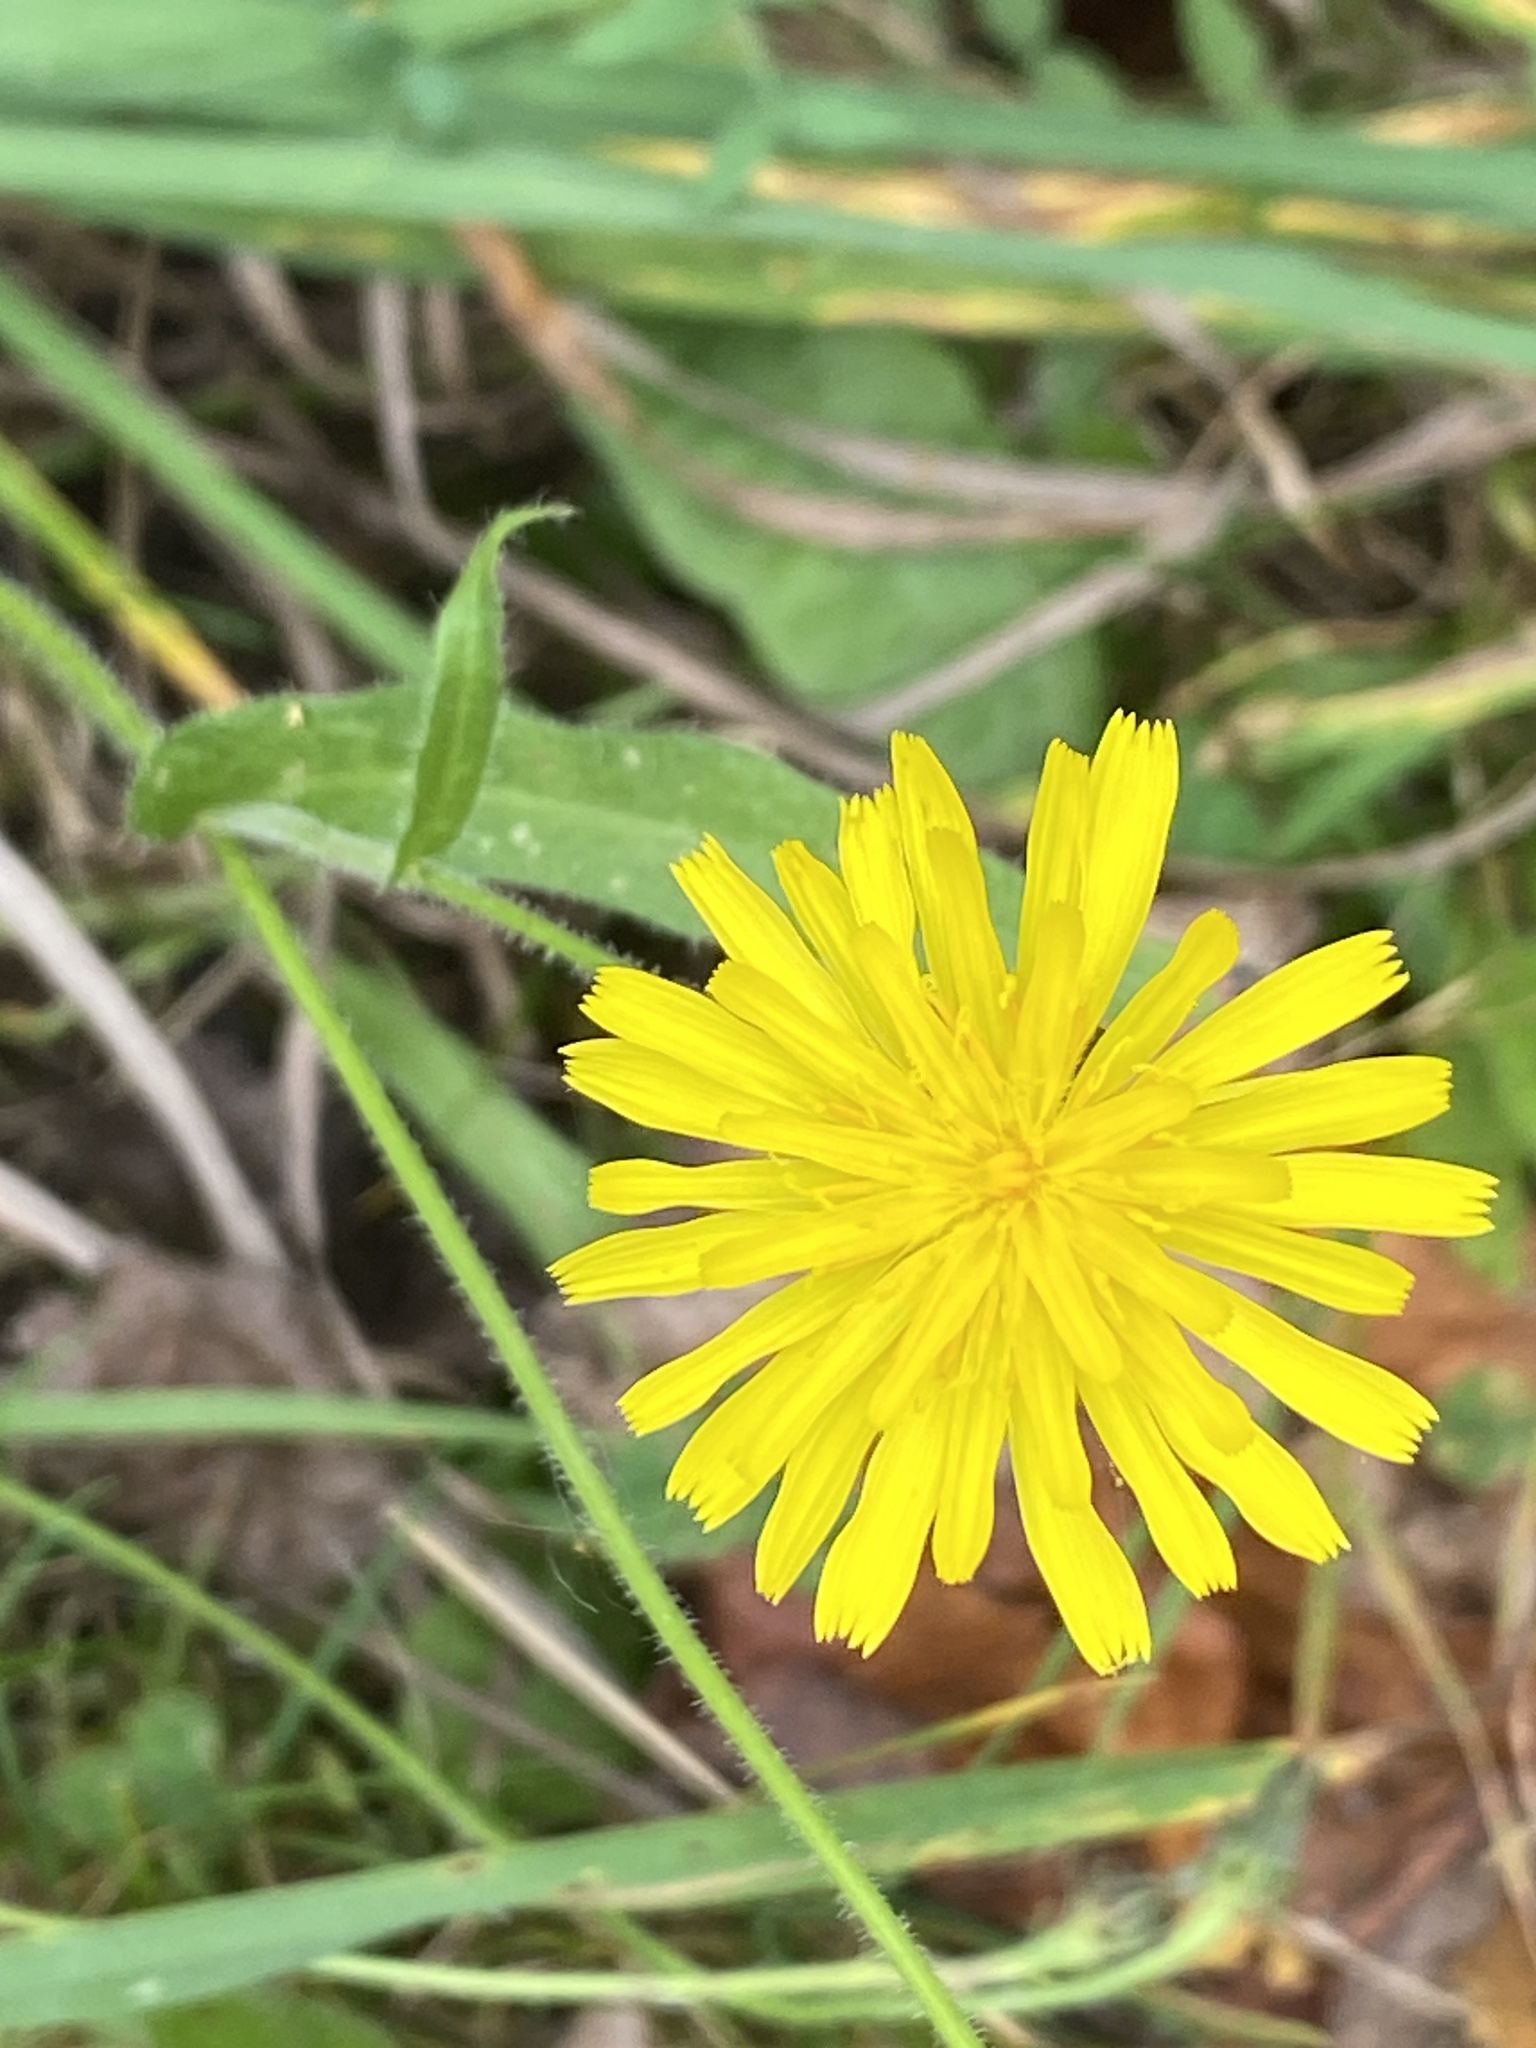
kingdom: Plantae
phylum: Tracheophyta
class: Magnoliopsida
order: Asterales
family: Asteraceae
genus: Picris
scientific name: Picris hieracioides
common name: Hawkweed oxtongue
